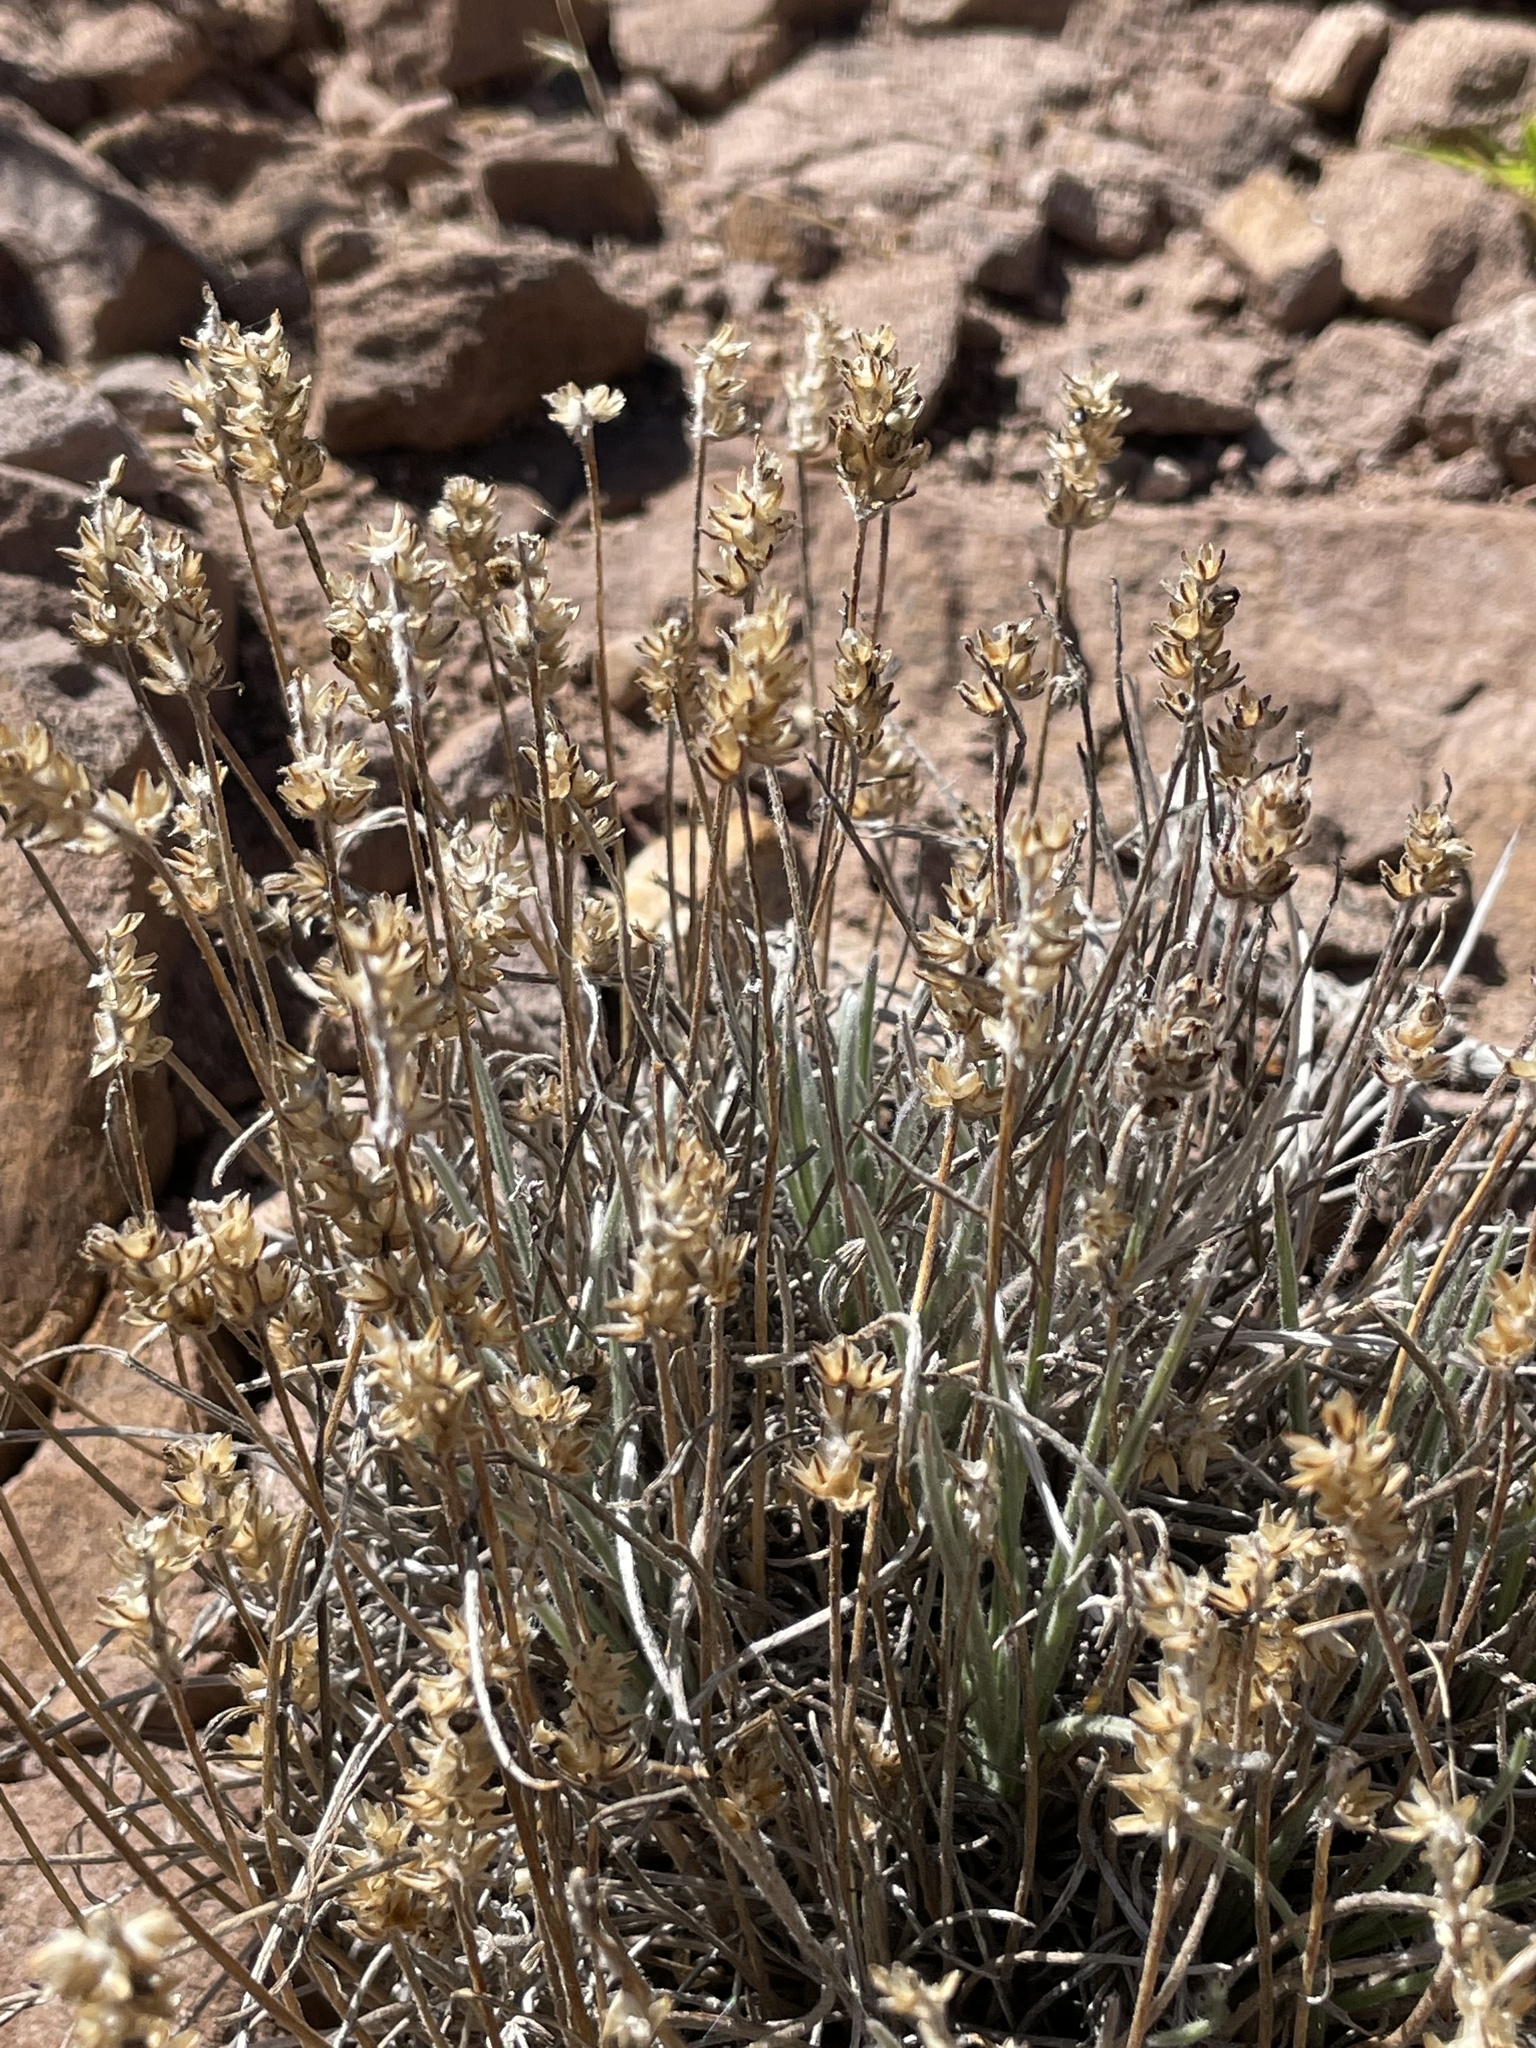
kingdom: Plantae
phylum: Tracheophyta
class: Magnoliopsida
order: Lamiales
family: Plantaginaceae
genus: Plantago
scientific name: Plantago sericea
